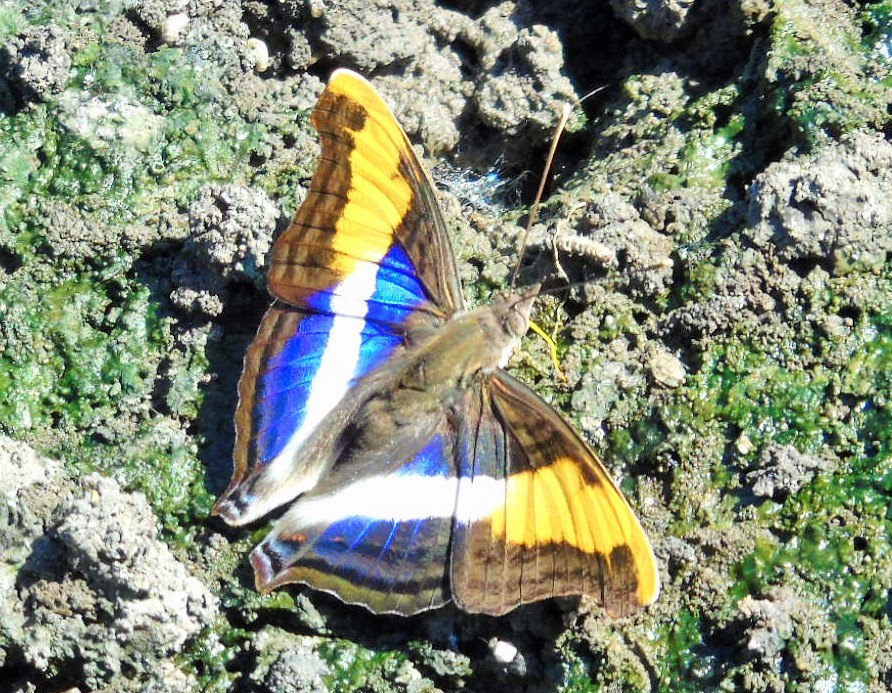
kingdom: Animalia
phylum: Arthropoda
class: Insecta
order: Lepidoptera
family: Nymphalidae
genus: Doxocopa
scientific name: Doxocopa laure
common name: Silver emperor
